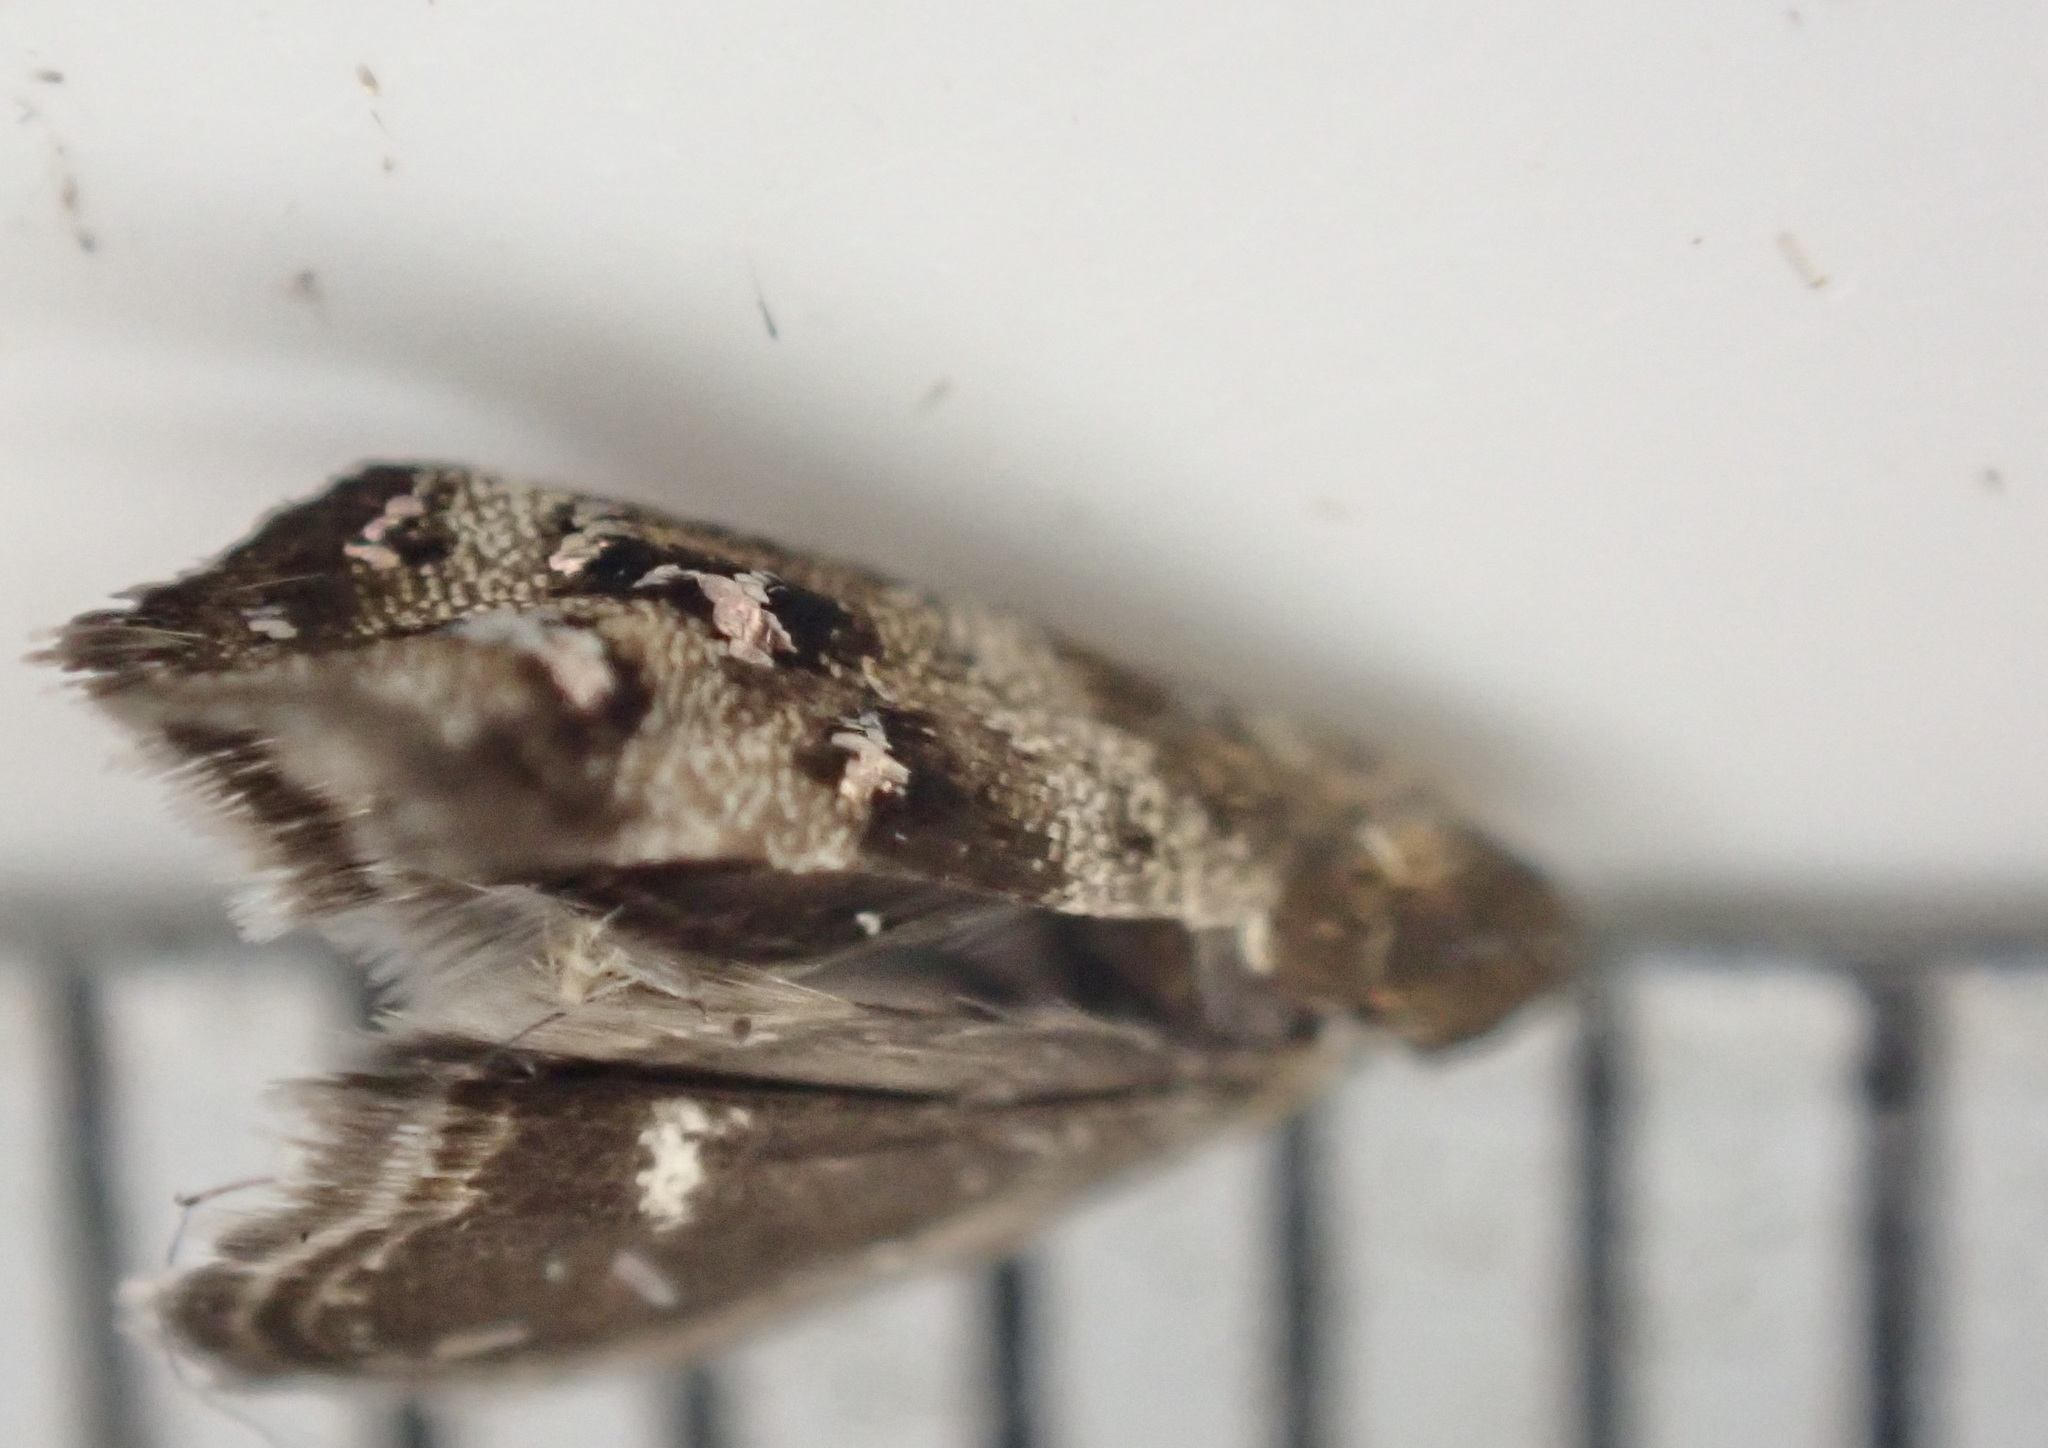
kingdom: Animalia
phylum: Arthropoda
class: Insecta
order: Lepidoptera
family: Choreutidae
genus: Tebenna
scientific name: Tebenna micalis
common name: Vagrant twitcher
